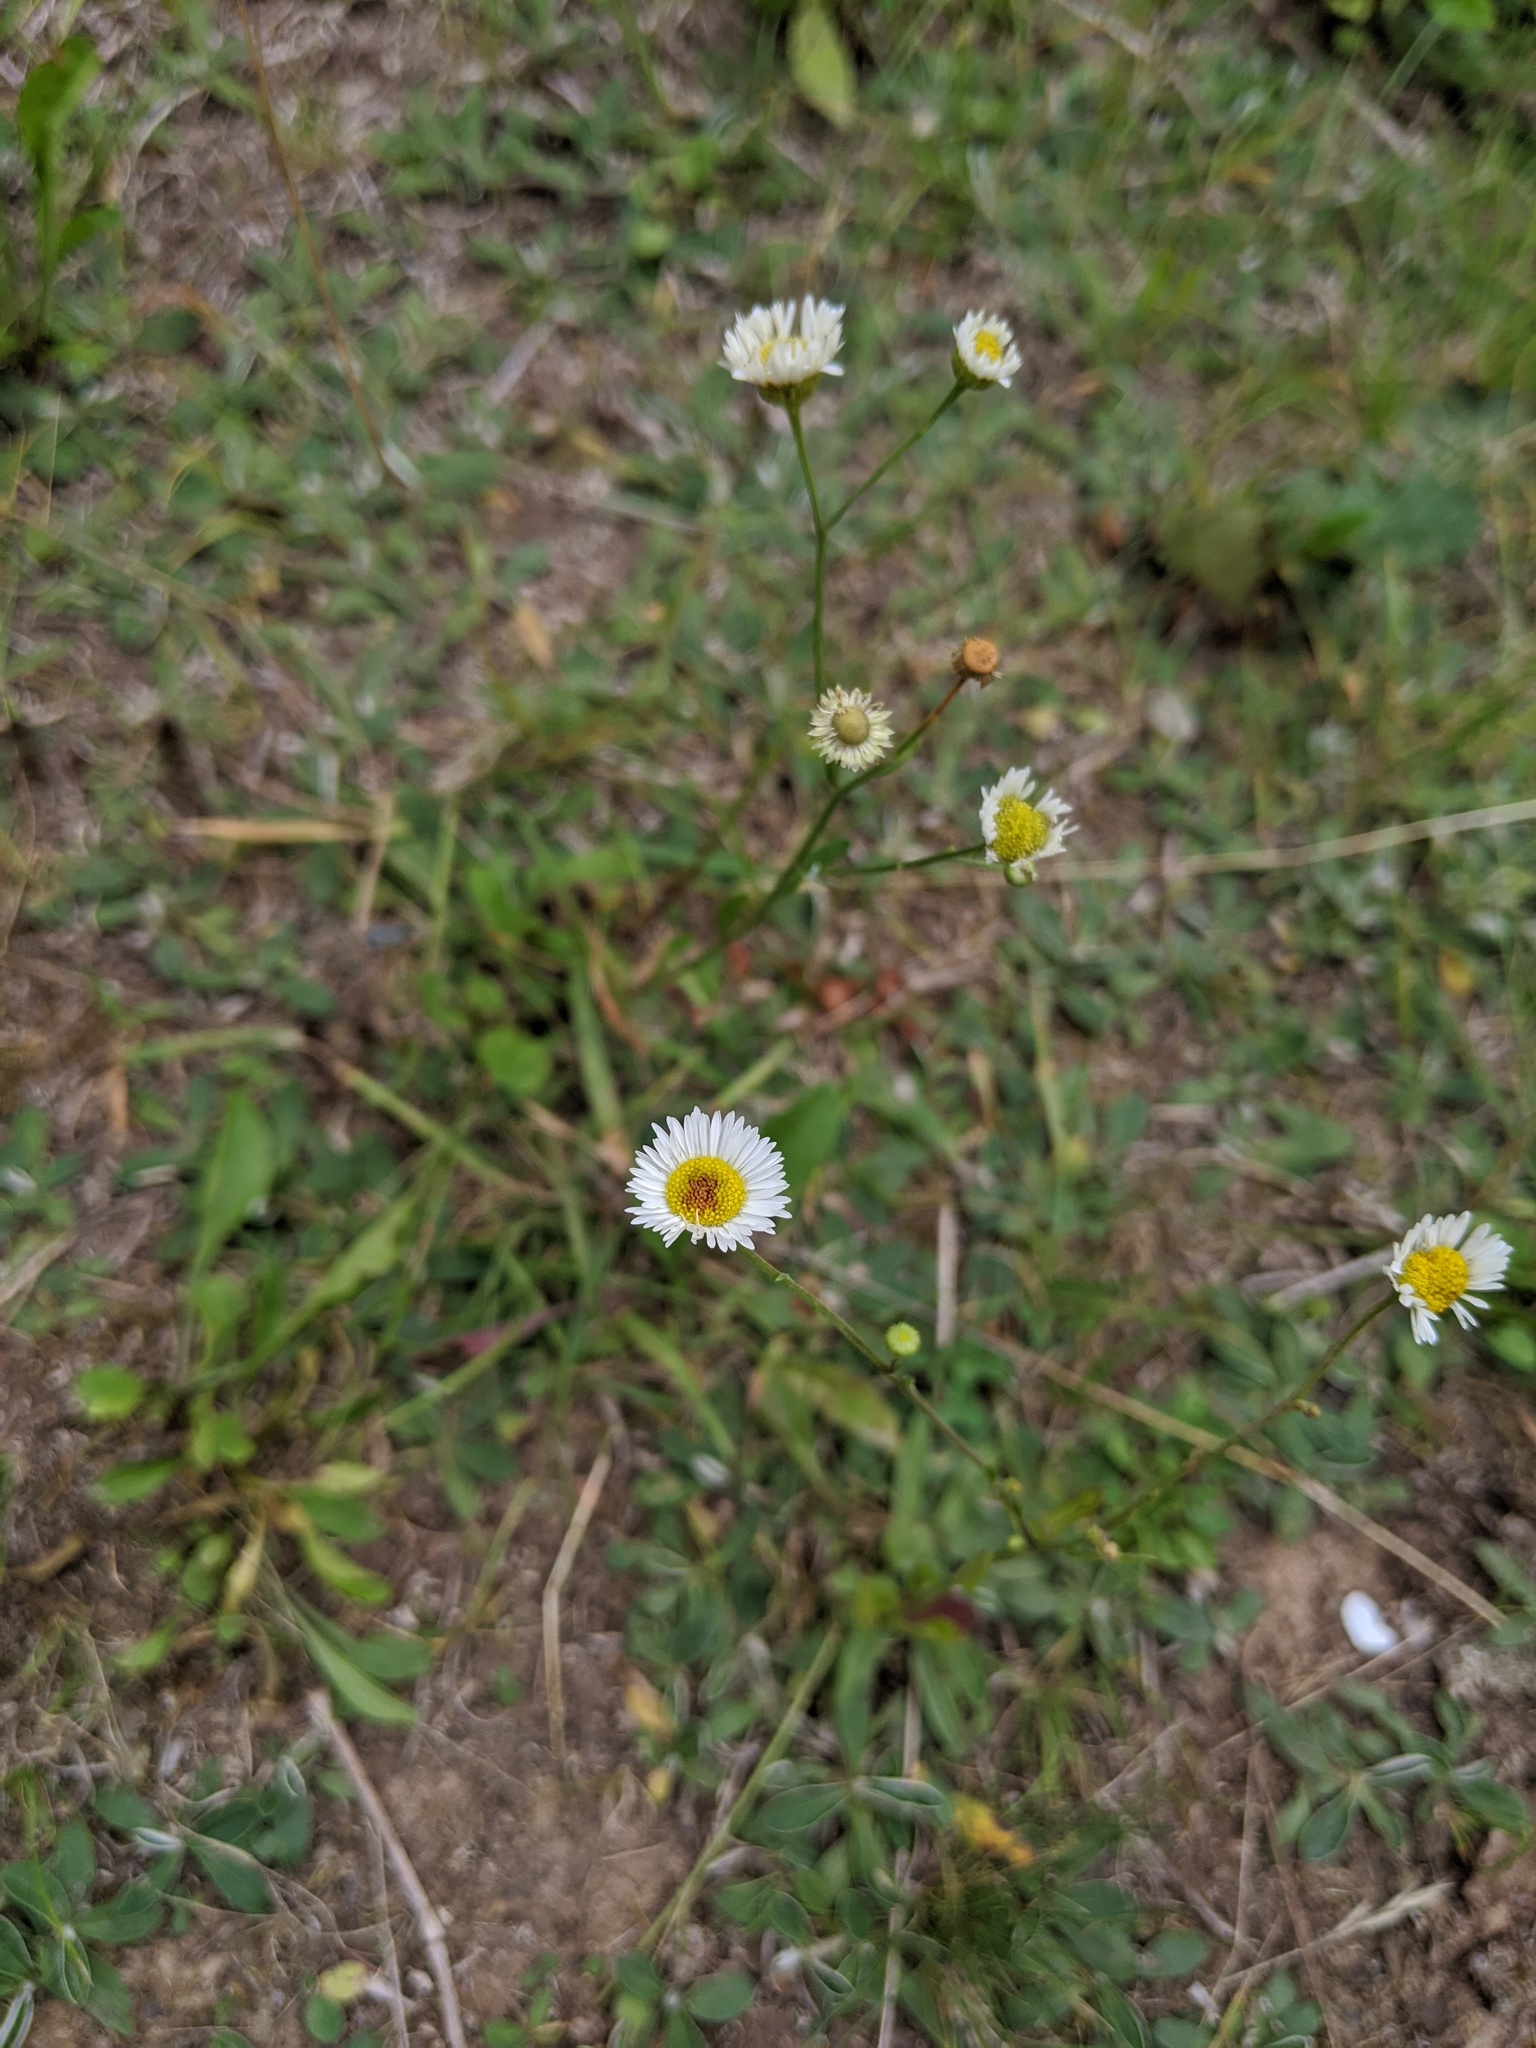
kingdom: Plantae
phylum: Tracheophyta
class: Magnoliopsida
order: Asterales
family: Asteraceae
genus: Erigeron
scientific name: Erigeron strigosus
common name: Common eastern fleabane
